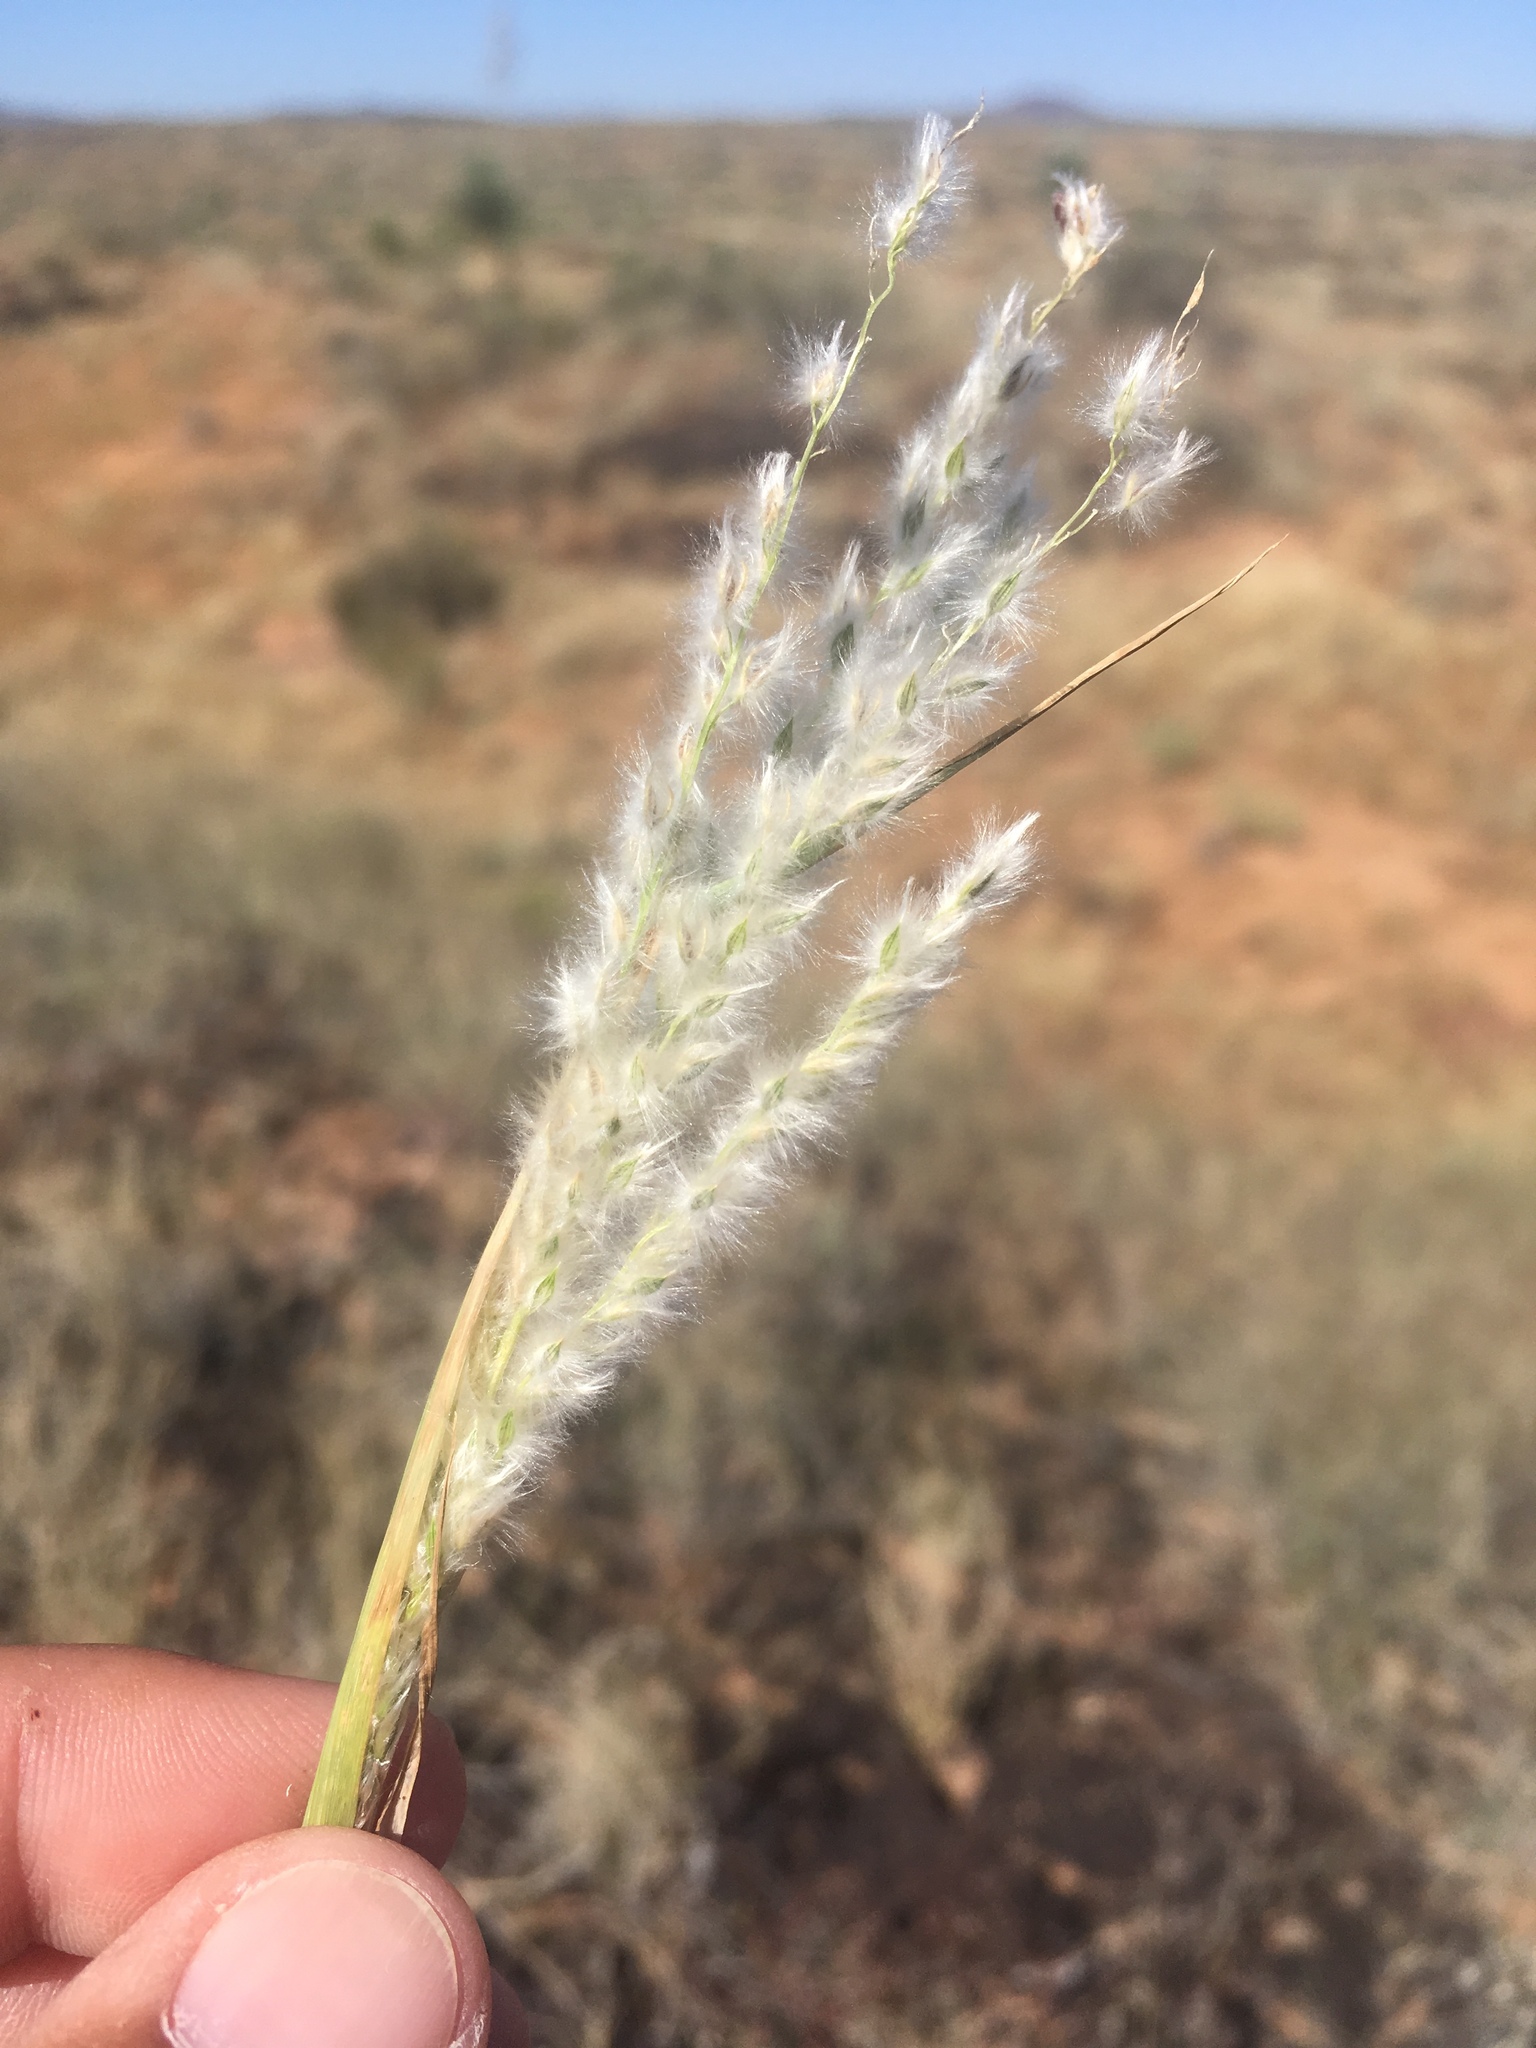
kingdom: Plantae
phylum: Tracheophyta
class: Liliopsida
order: Poales
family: Poaceae
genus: Digitaria
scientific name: Digitaria californica
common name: Arizona cottontop
